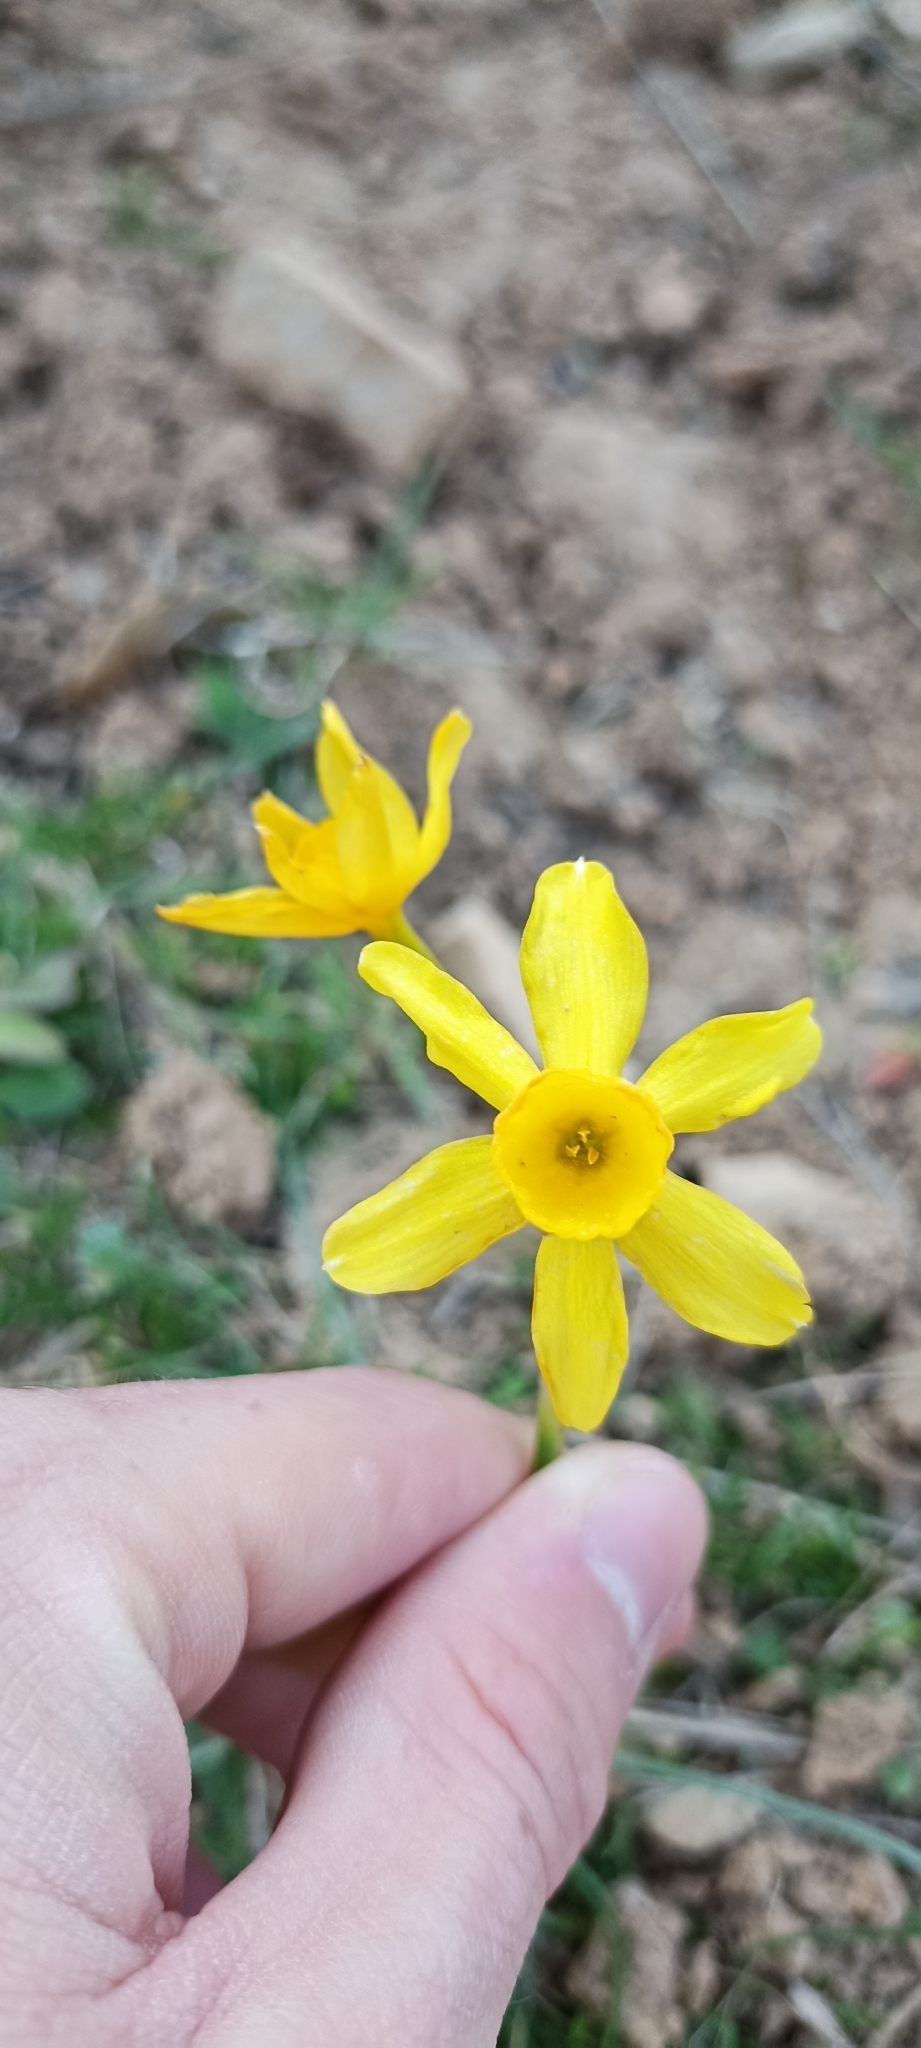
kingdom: Plantae
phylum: Tracheophyta
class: Liliopsida
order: Asparagales
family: Amaryllidaceae
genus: Narcissus
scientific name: Narcissus assoanus
